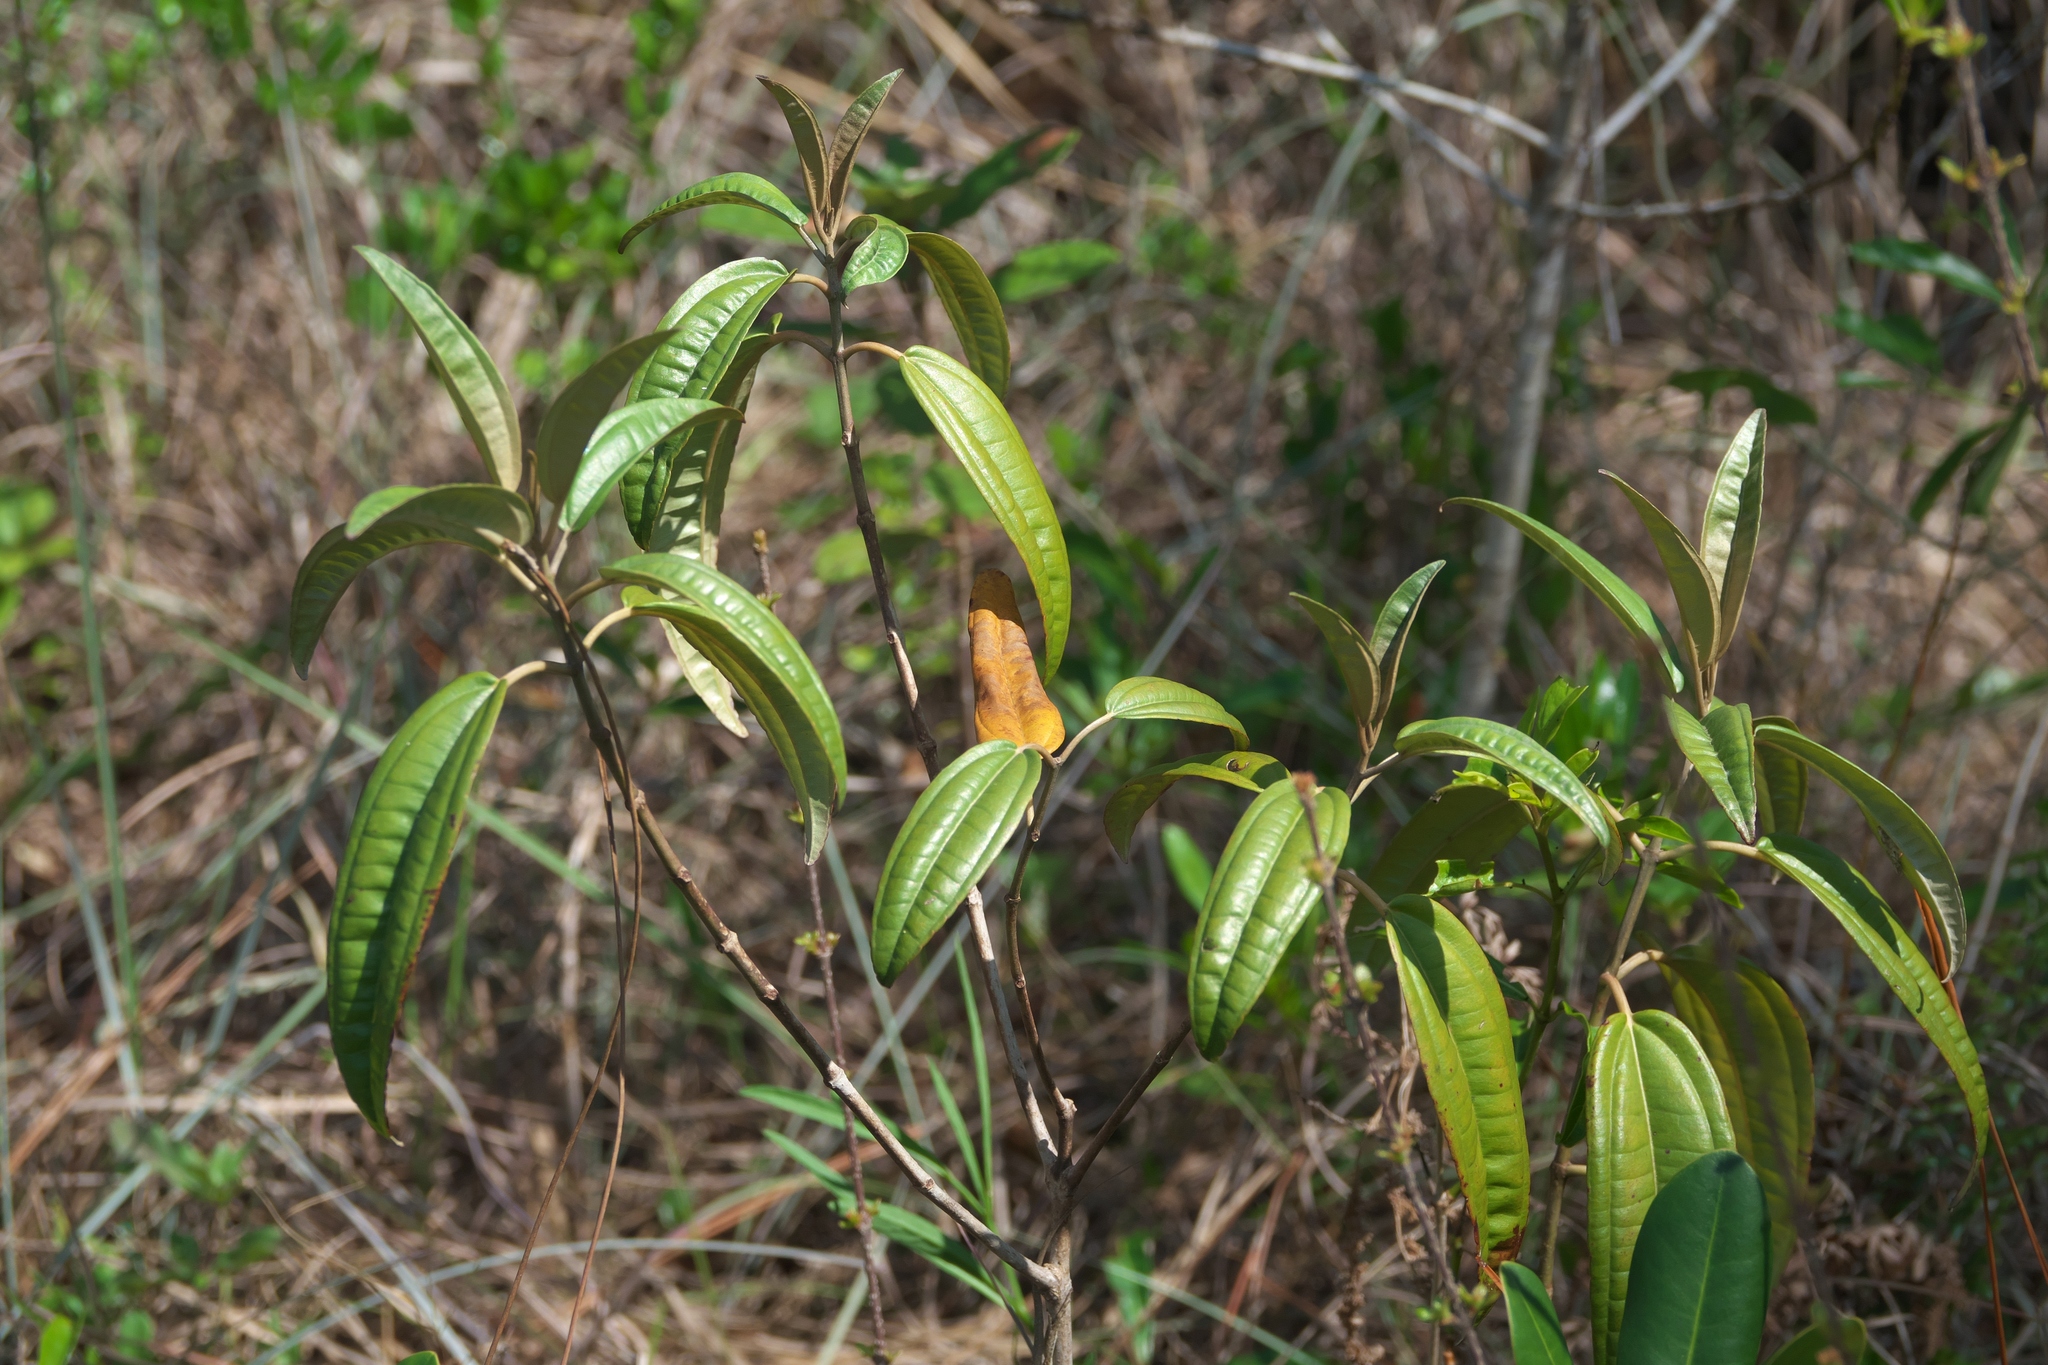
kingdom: Plantae
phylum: Tracheophyta
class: Magnoliopsida
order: Myrtales
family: Melastomataceae
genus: Miconia
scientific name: Miconia bicolor
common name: Johnnyberry
